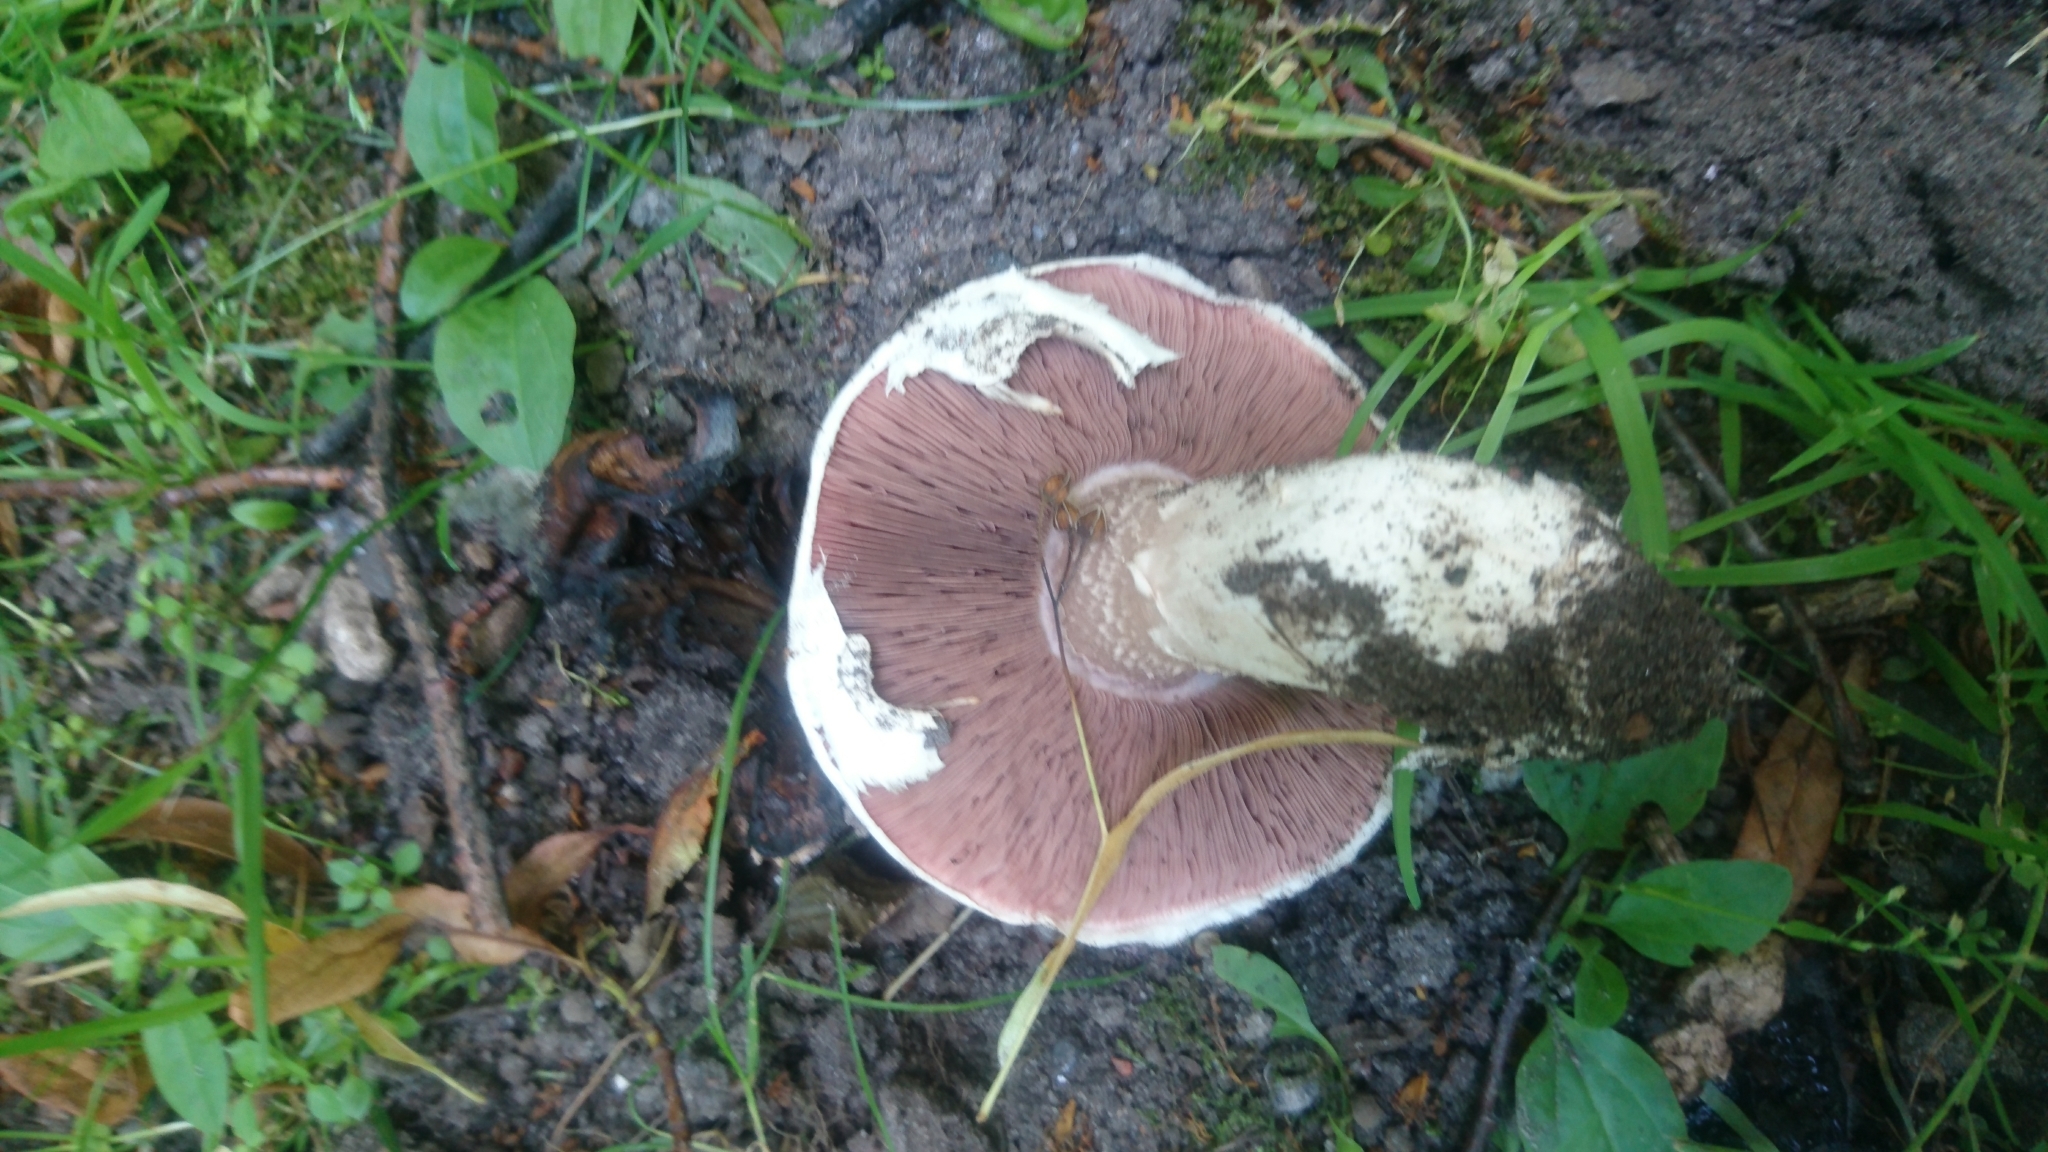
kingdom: Fungi
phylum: Basidiomycota
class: Agaricomycetes
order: Agaricales
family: Agaricaceae
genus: Agaricus
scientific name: Agaricus bitorquis
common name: Pavement mushroom
